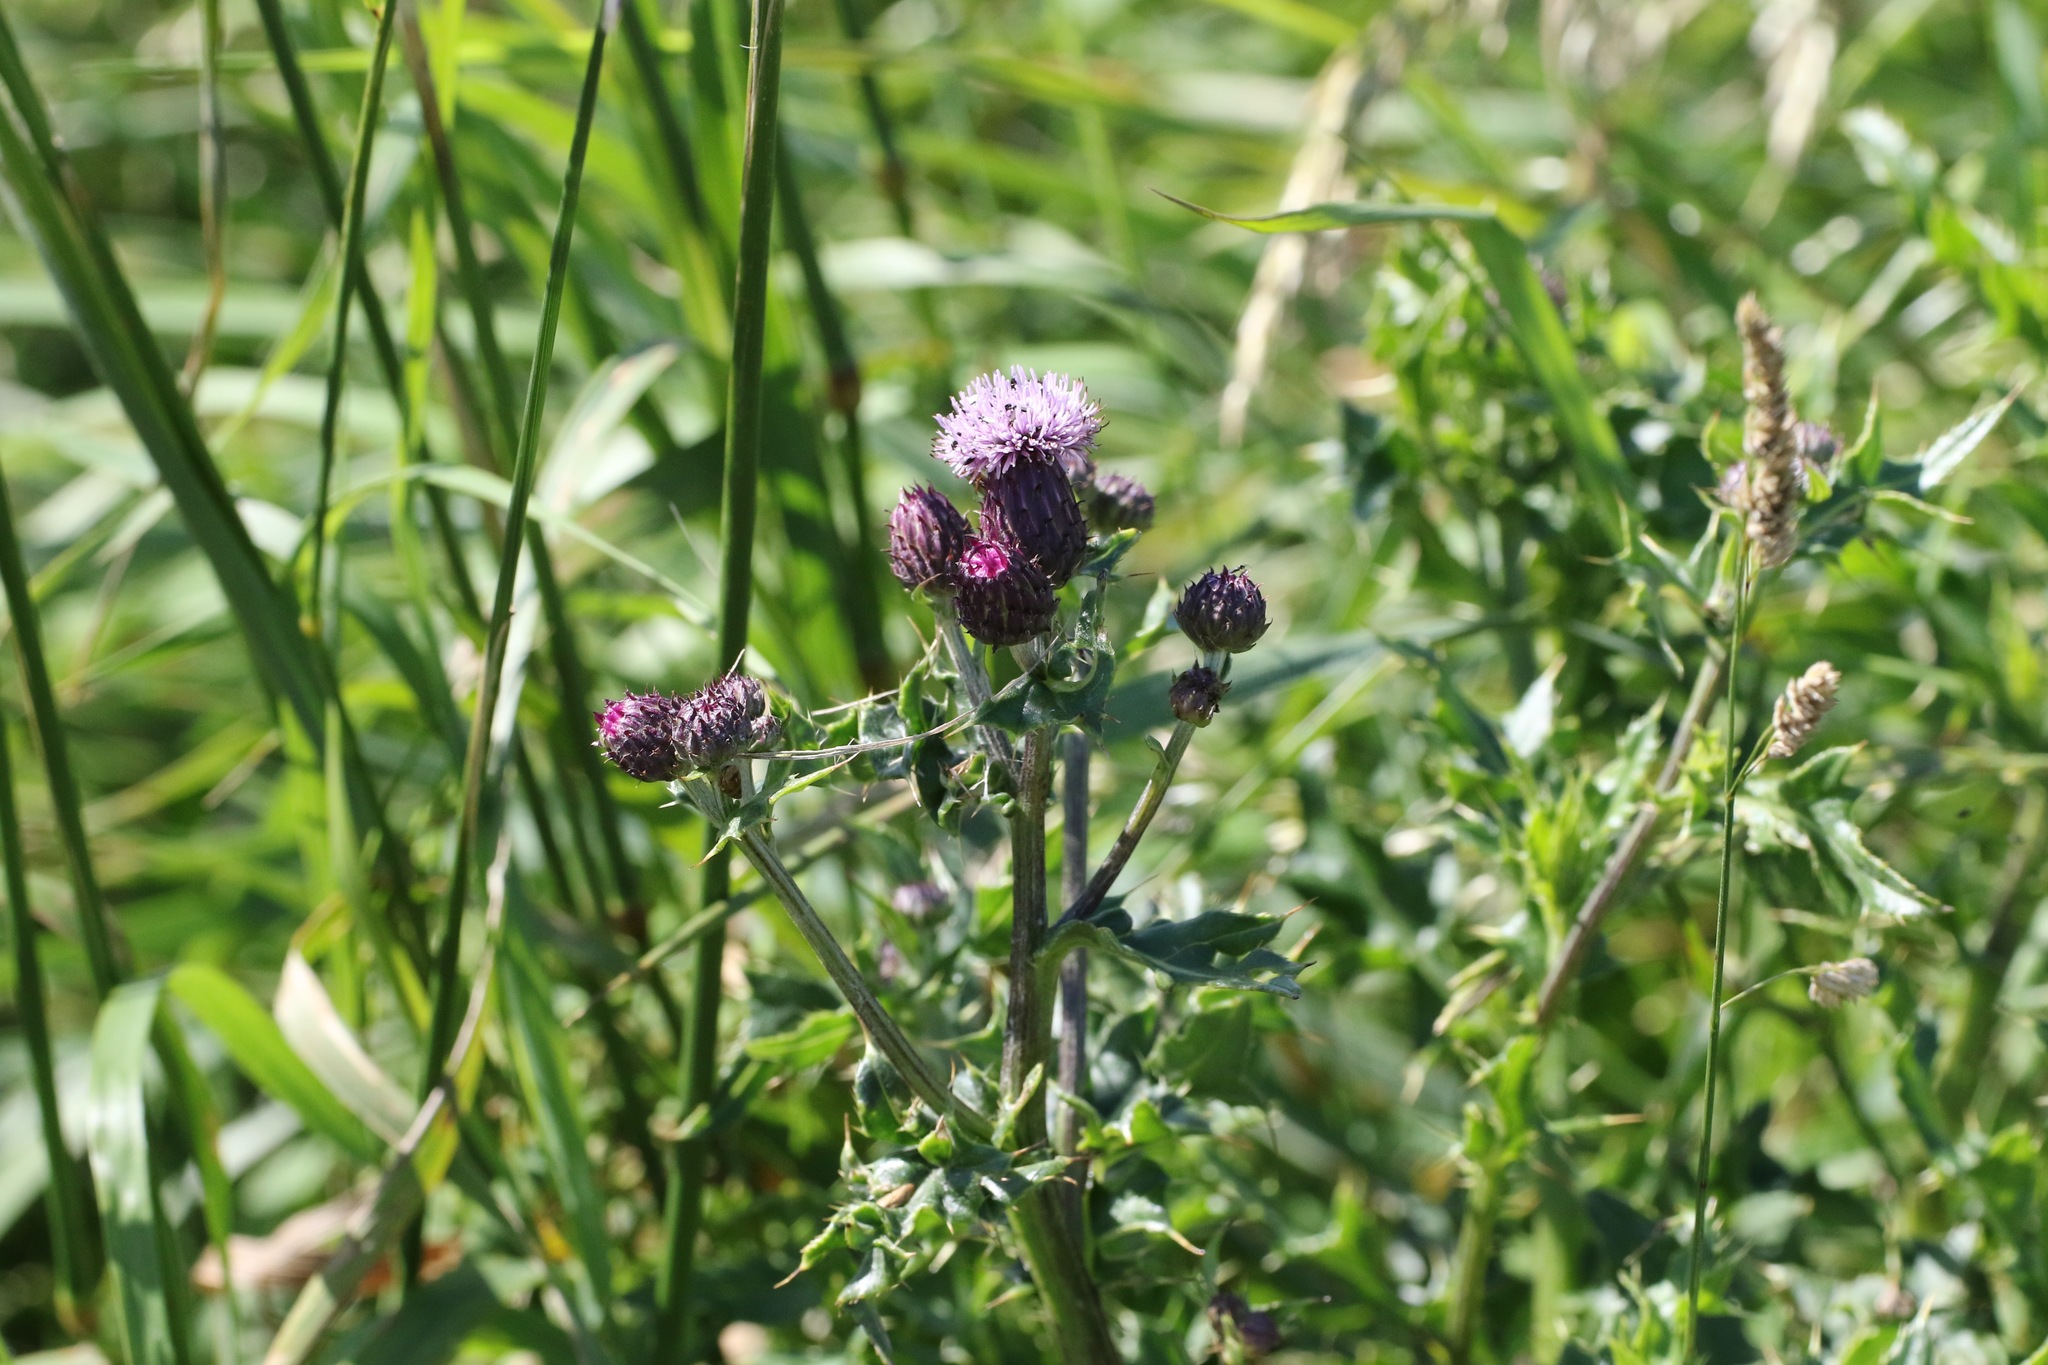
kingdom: Plantae
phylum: Tracheophyta
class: Magnoliopsida
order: Asterales
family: Asteraceae
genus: Cirsium
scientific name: Cirsium arvense
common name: Creeping thistle
